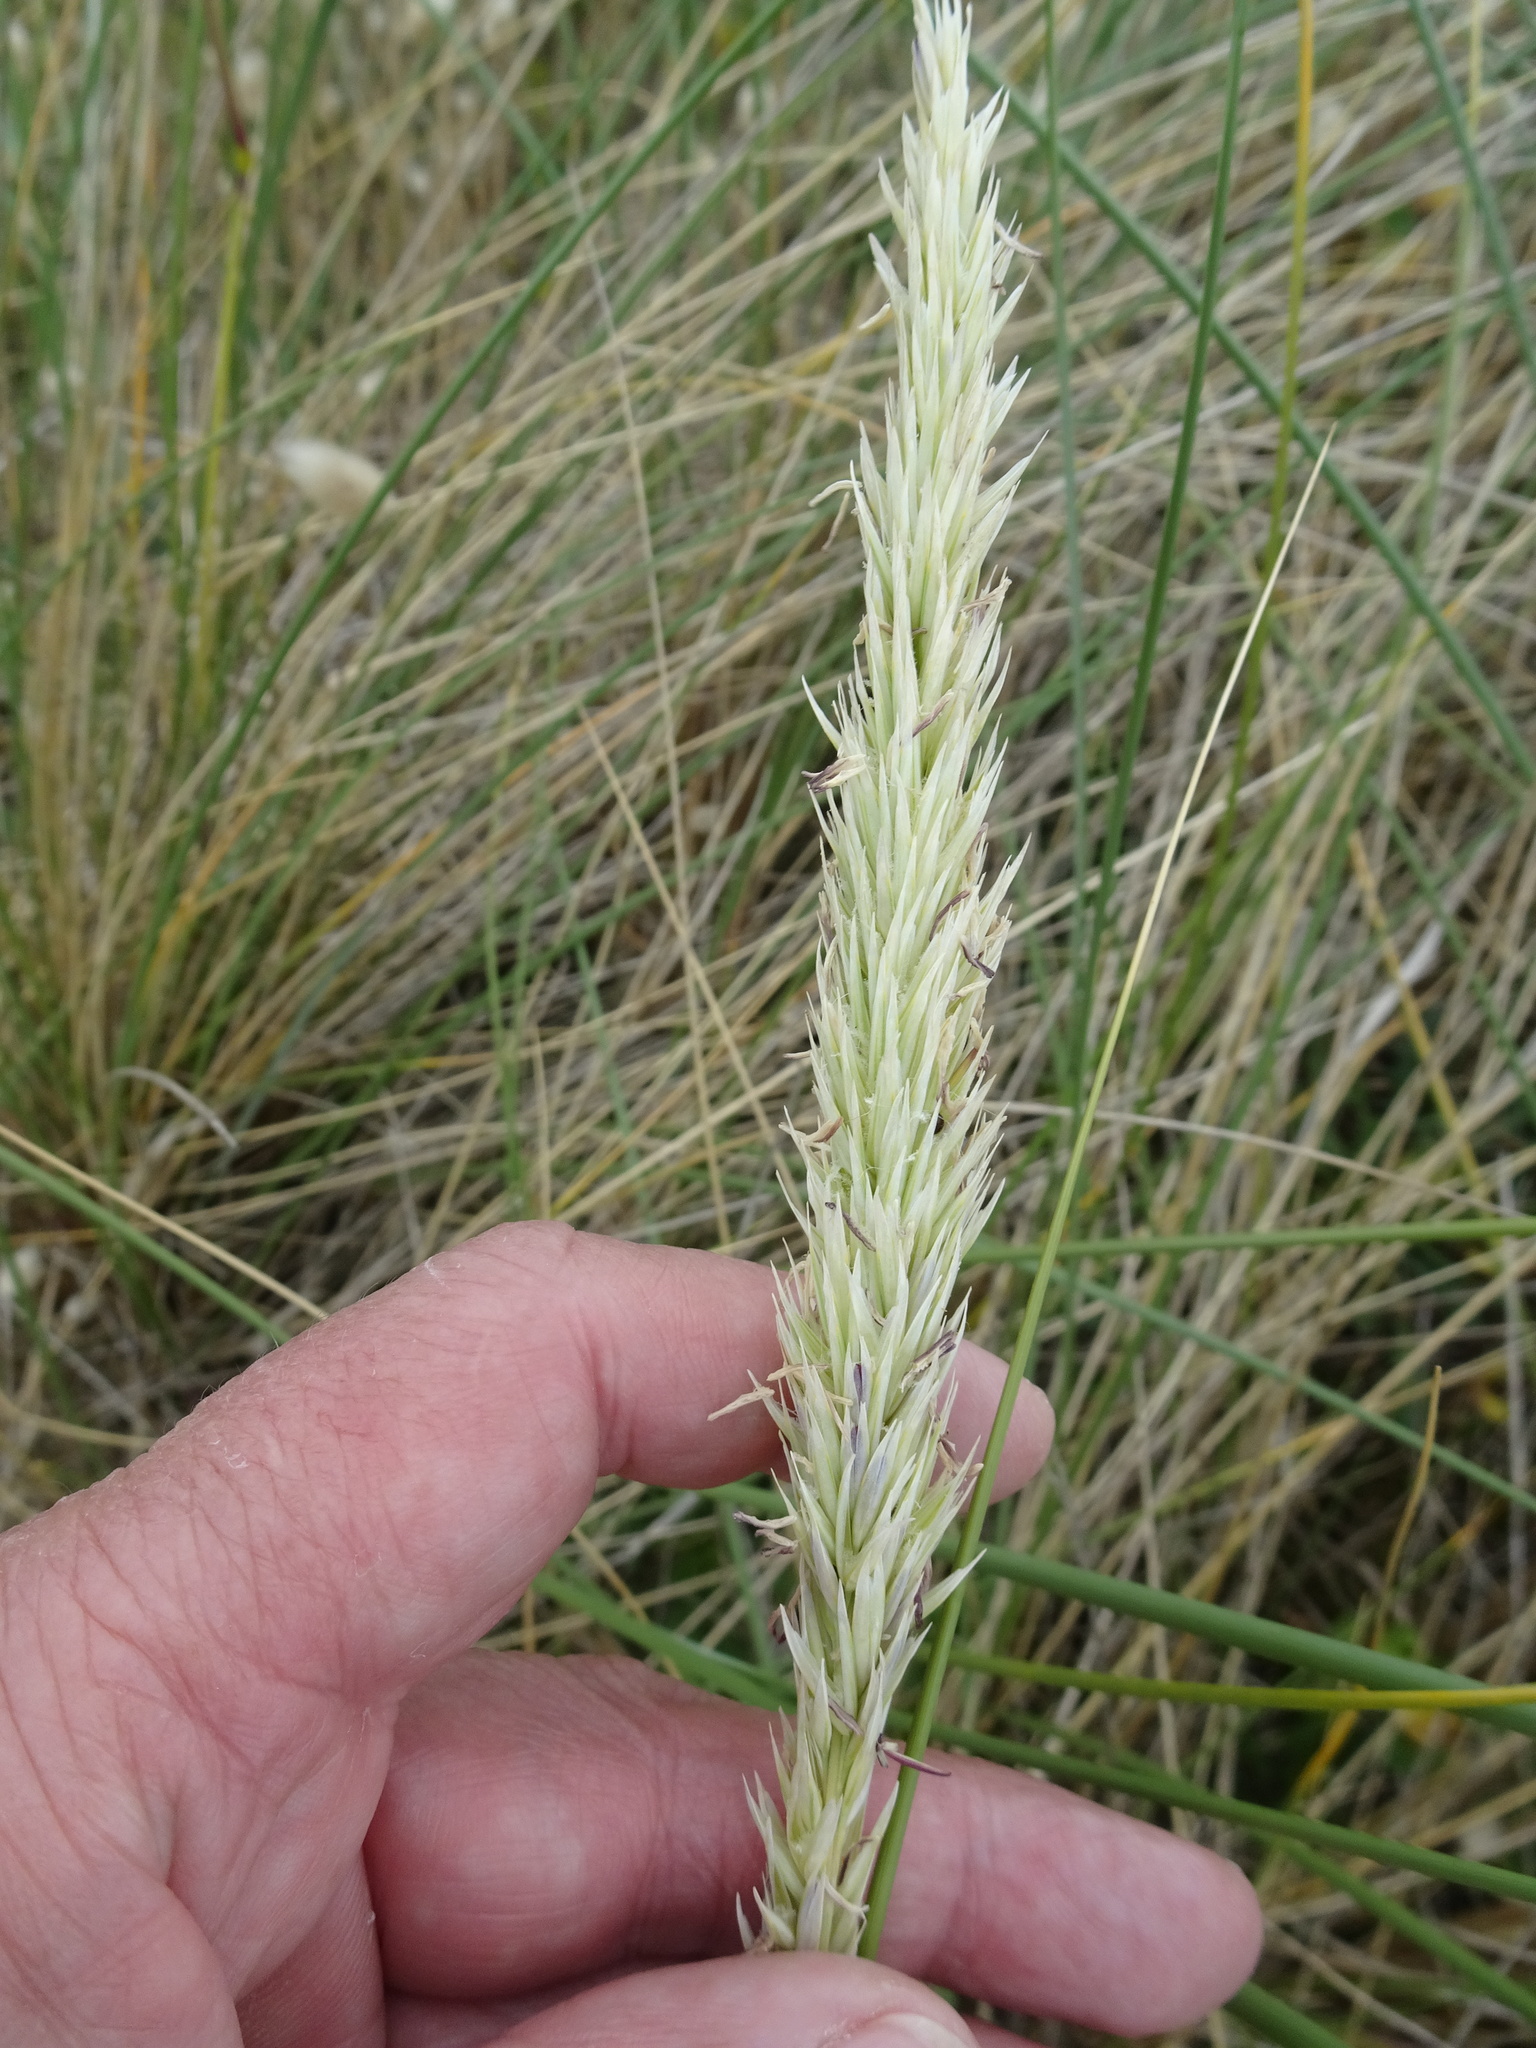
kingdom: Plantae
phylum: Tracheophyta
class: Liliopsida
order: Poales
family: Poaceae
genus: Calamagrostis
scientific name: Calamagrostis arenaria
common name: European beachgrass
